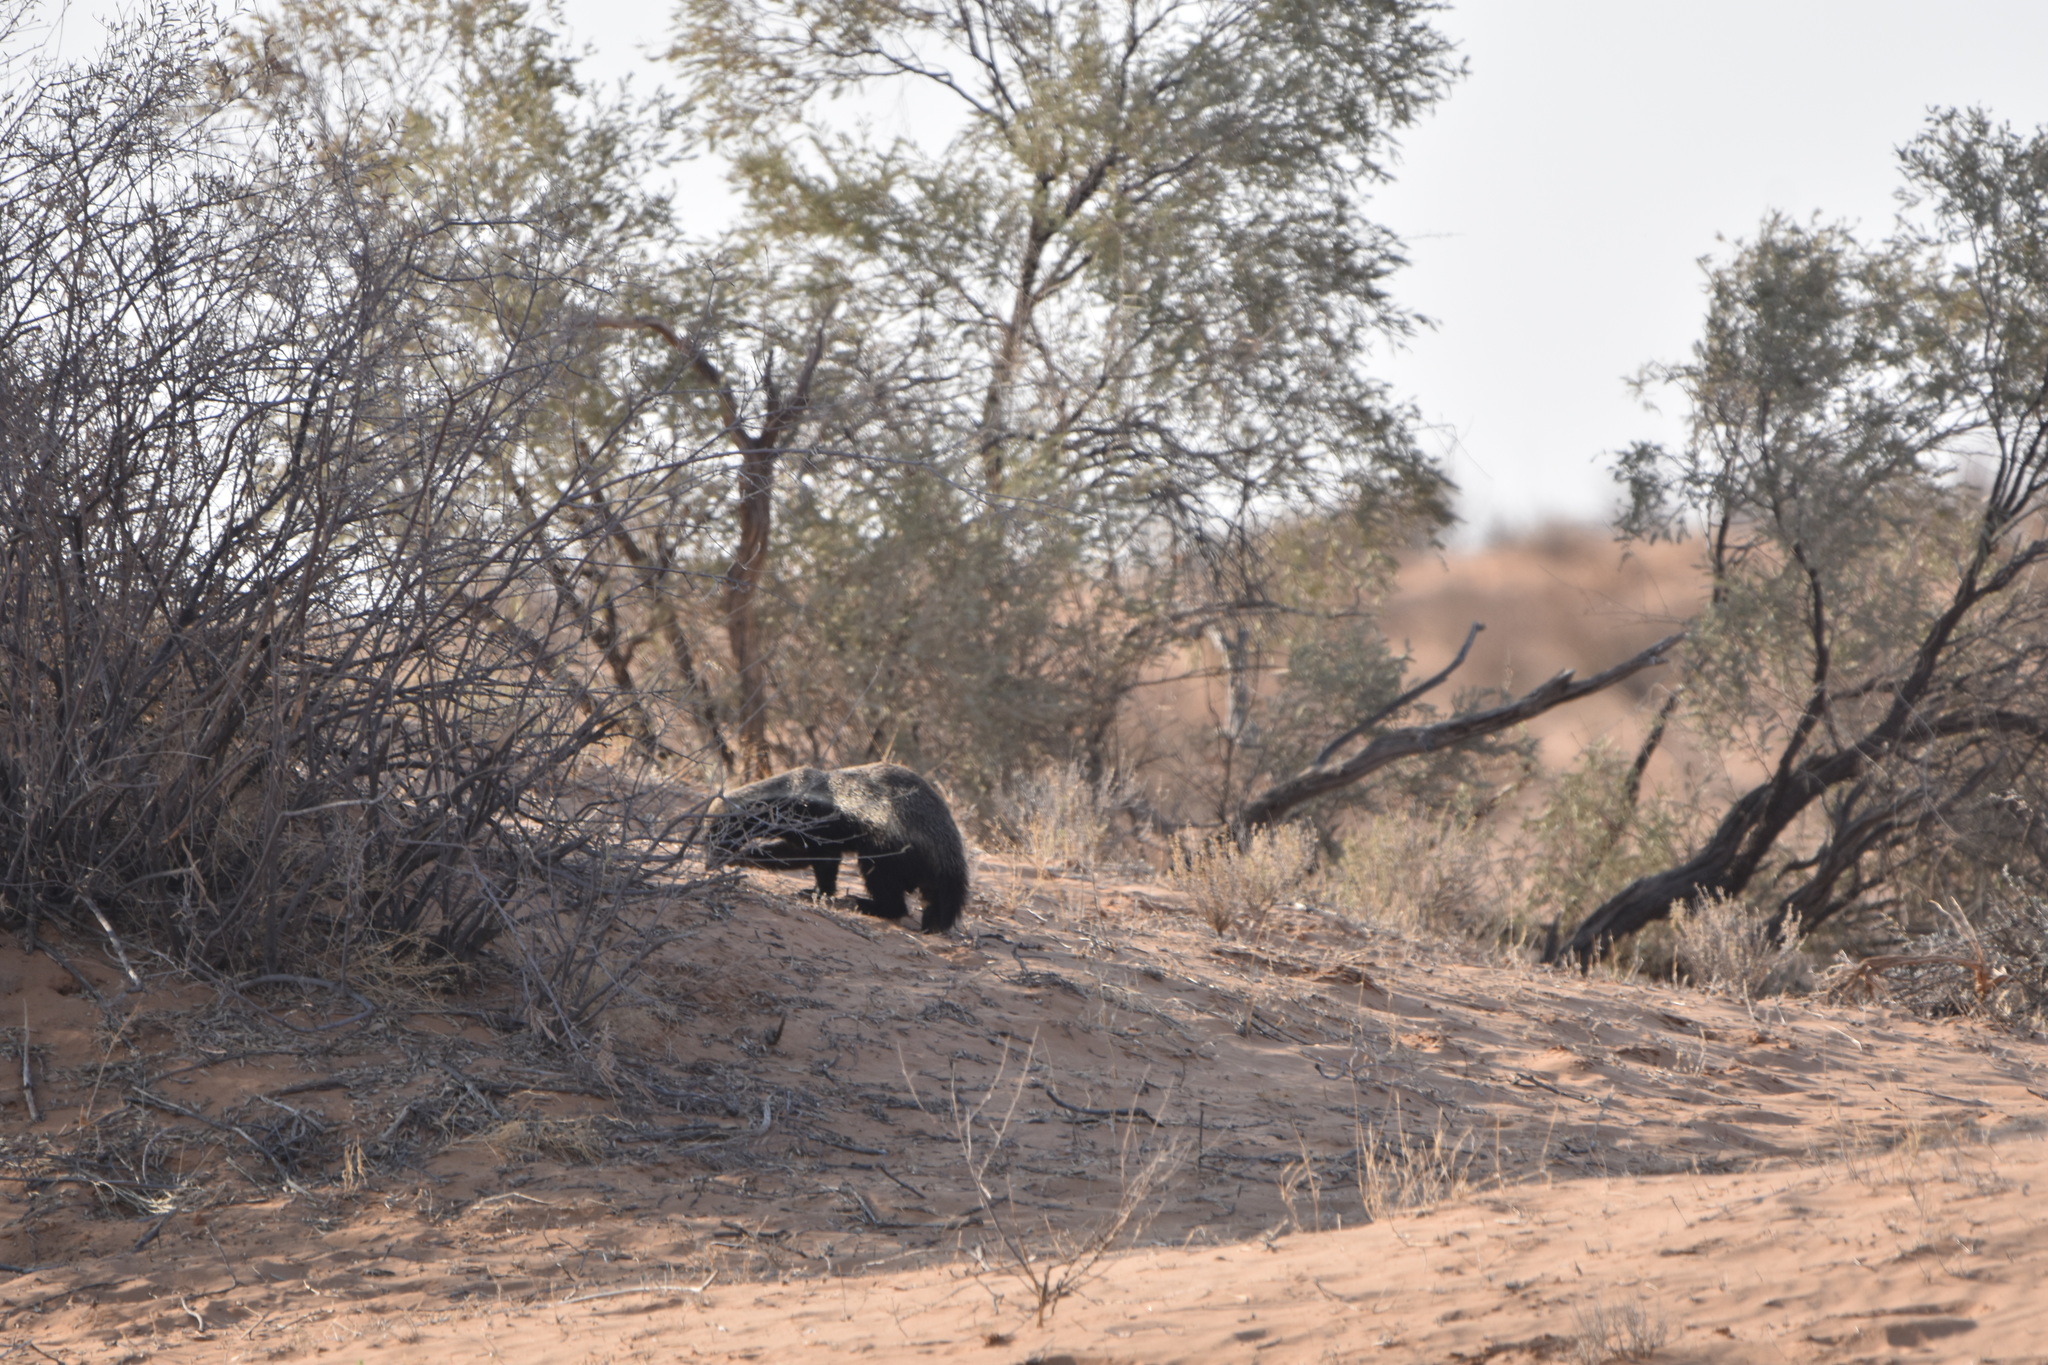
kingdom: Animalia
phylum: Chordata
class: Mammalia
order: Carnivora
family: Mustelidae
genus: Mellivora
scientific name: Mellivora capensis
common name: Honey badger
